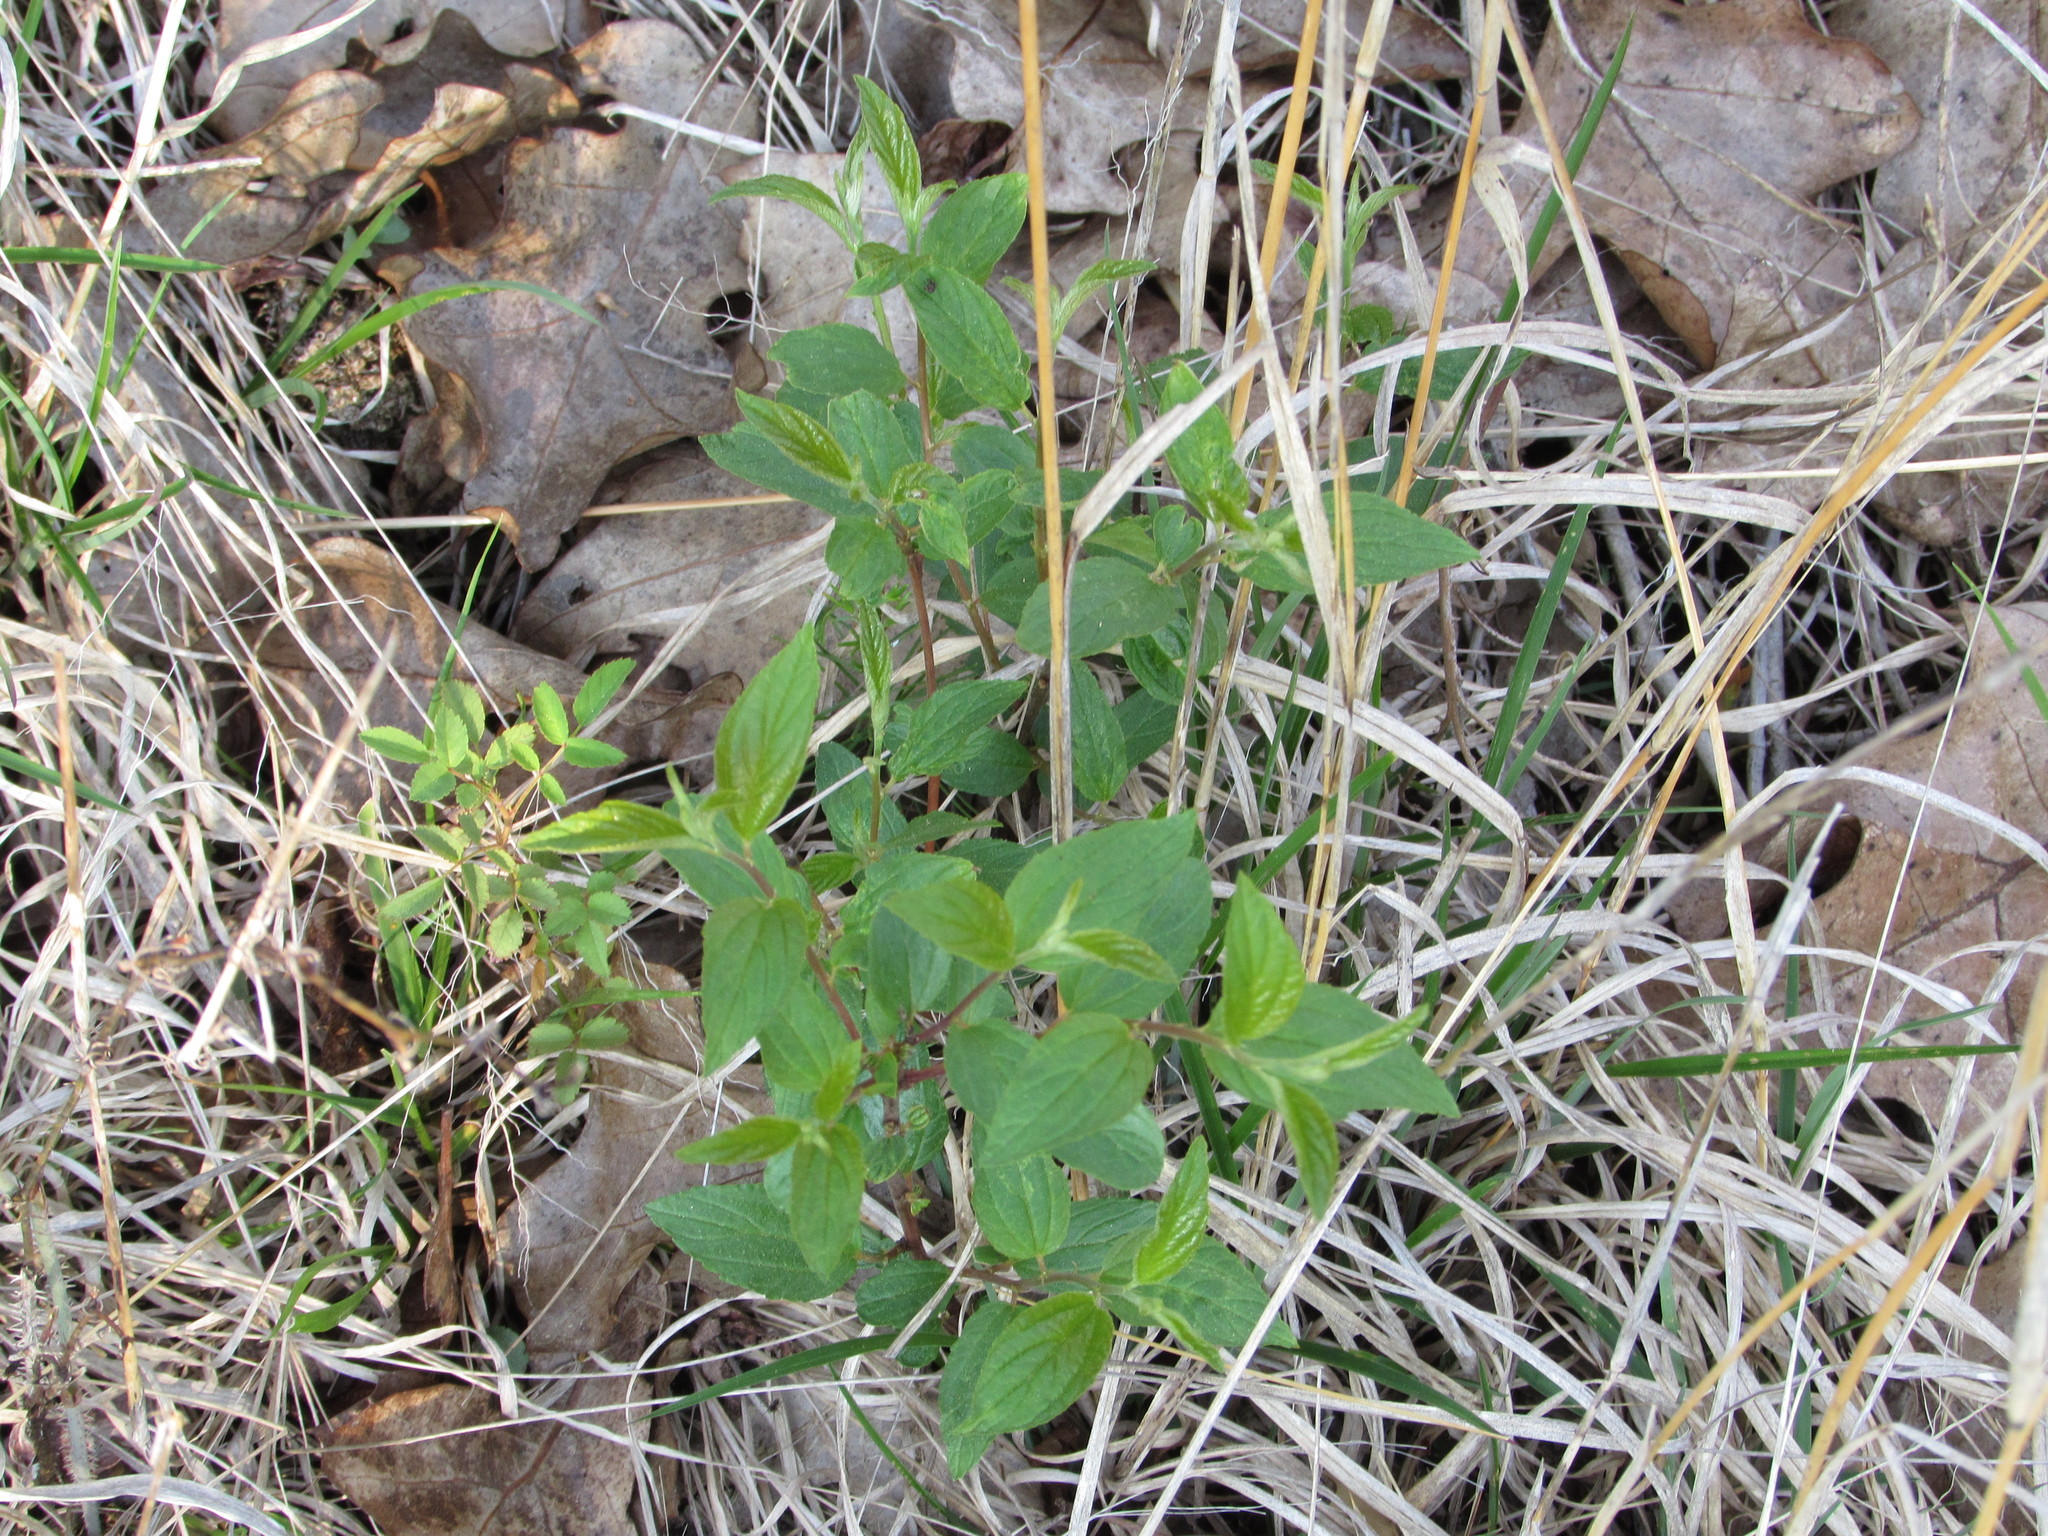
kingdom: Plantae
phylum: Tracheophyta
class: Magnoliopsida
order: Rosales
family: Rhamnaceae
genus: Ceanothus
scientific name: Ceanothus americanus
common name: Redroot
